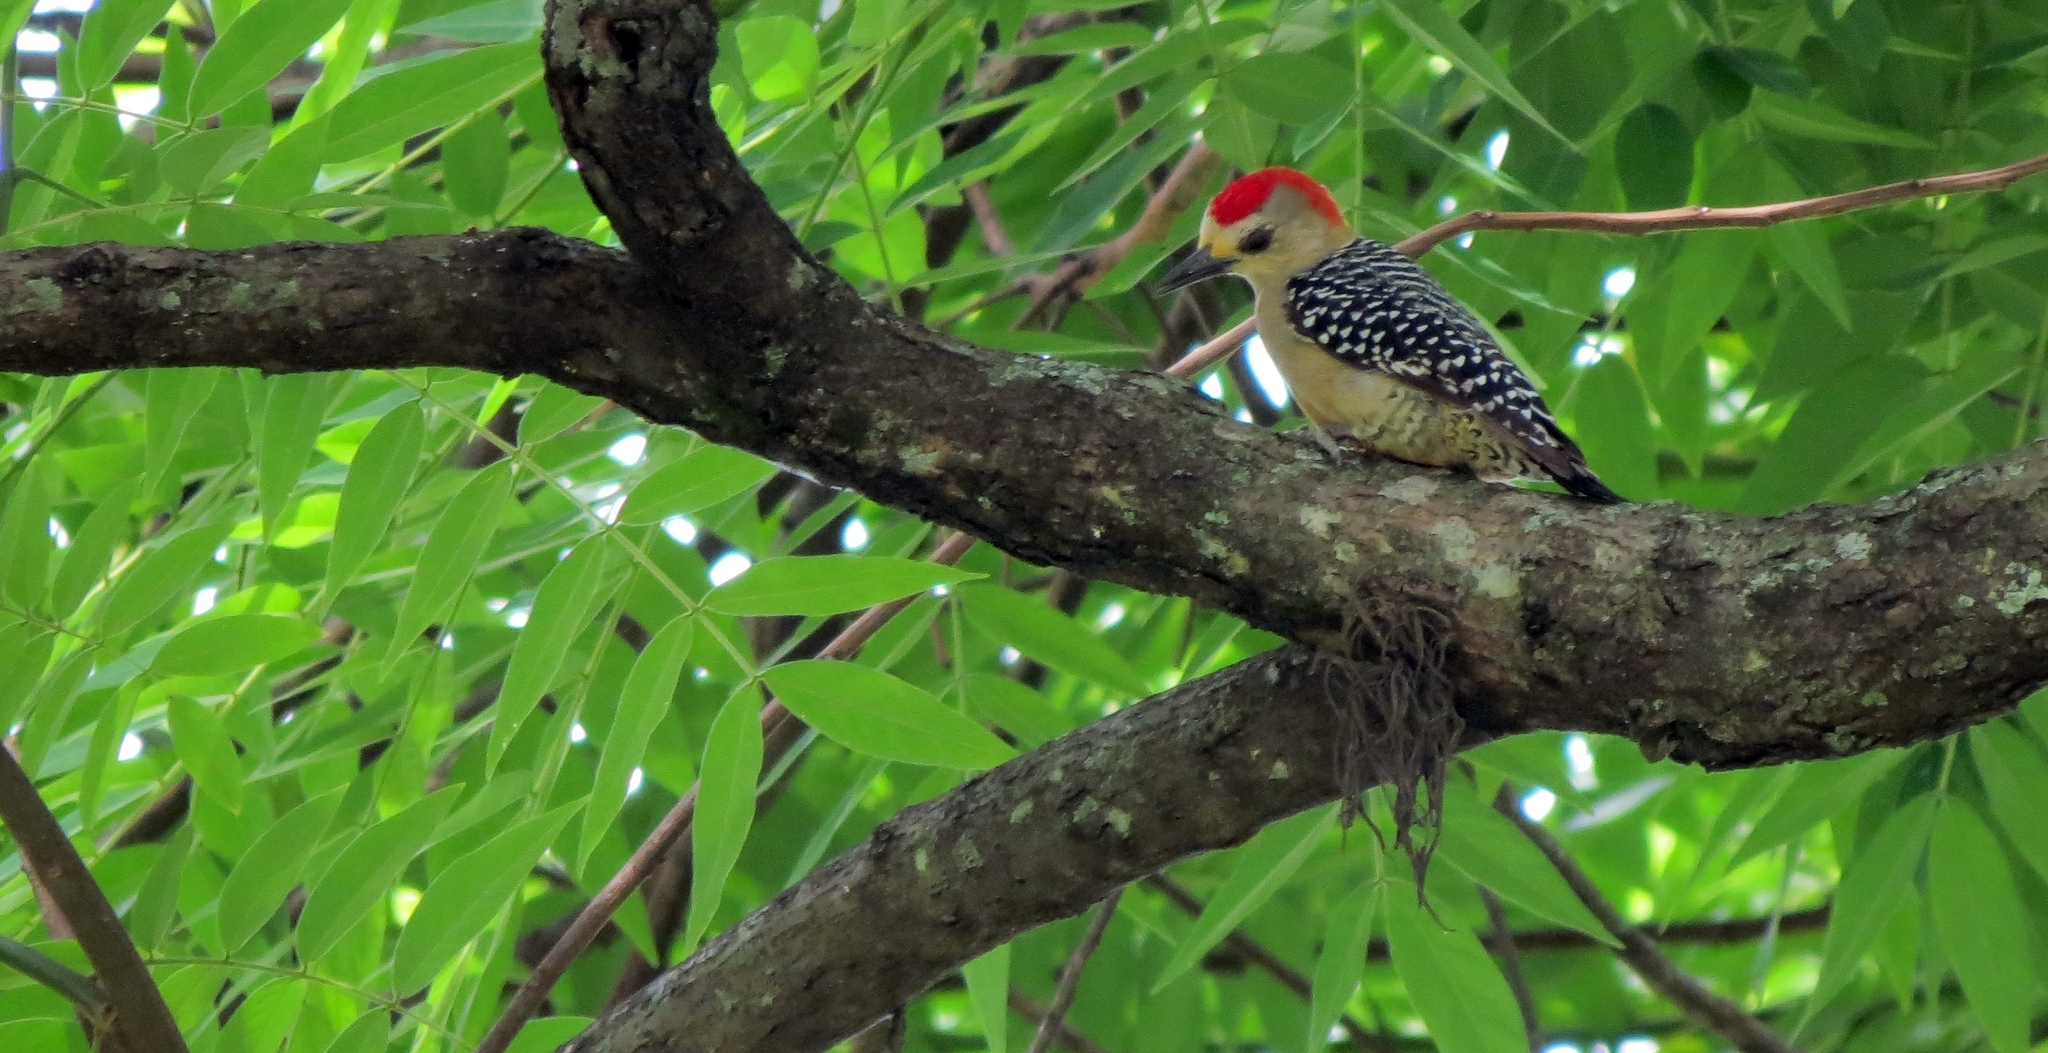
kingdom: Animalia
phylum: Chordata
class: Aves
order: Piciformes
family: Picidae
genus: Melanerpes
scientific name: Melanerpes rubricapillus
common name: Red-crowned woodpecker
